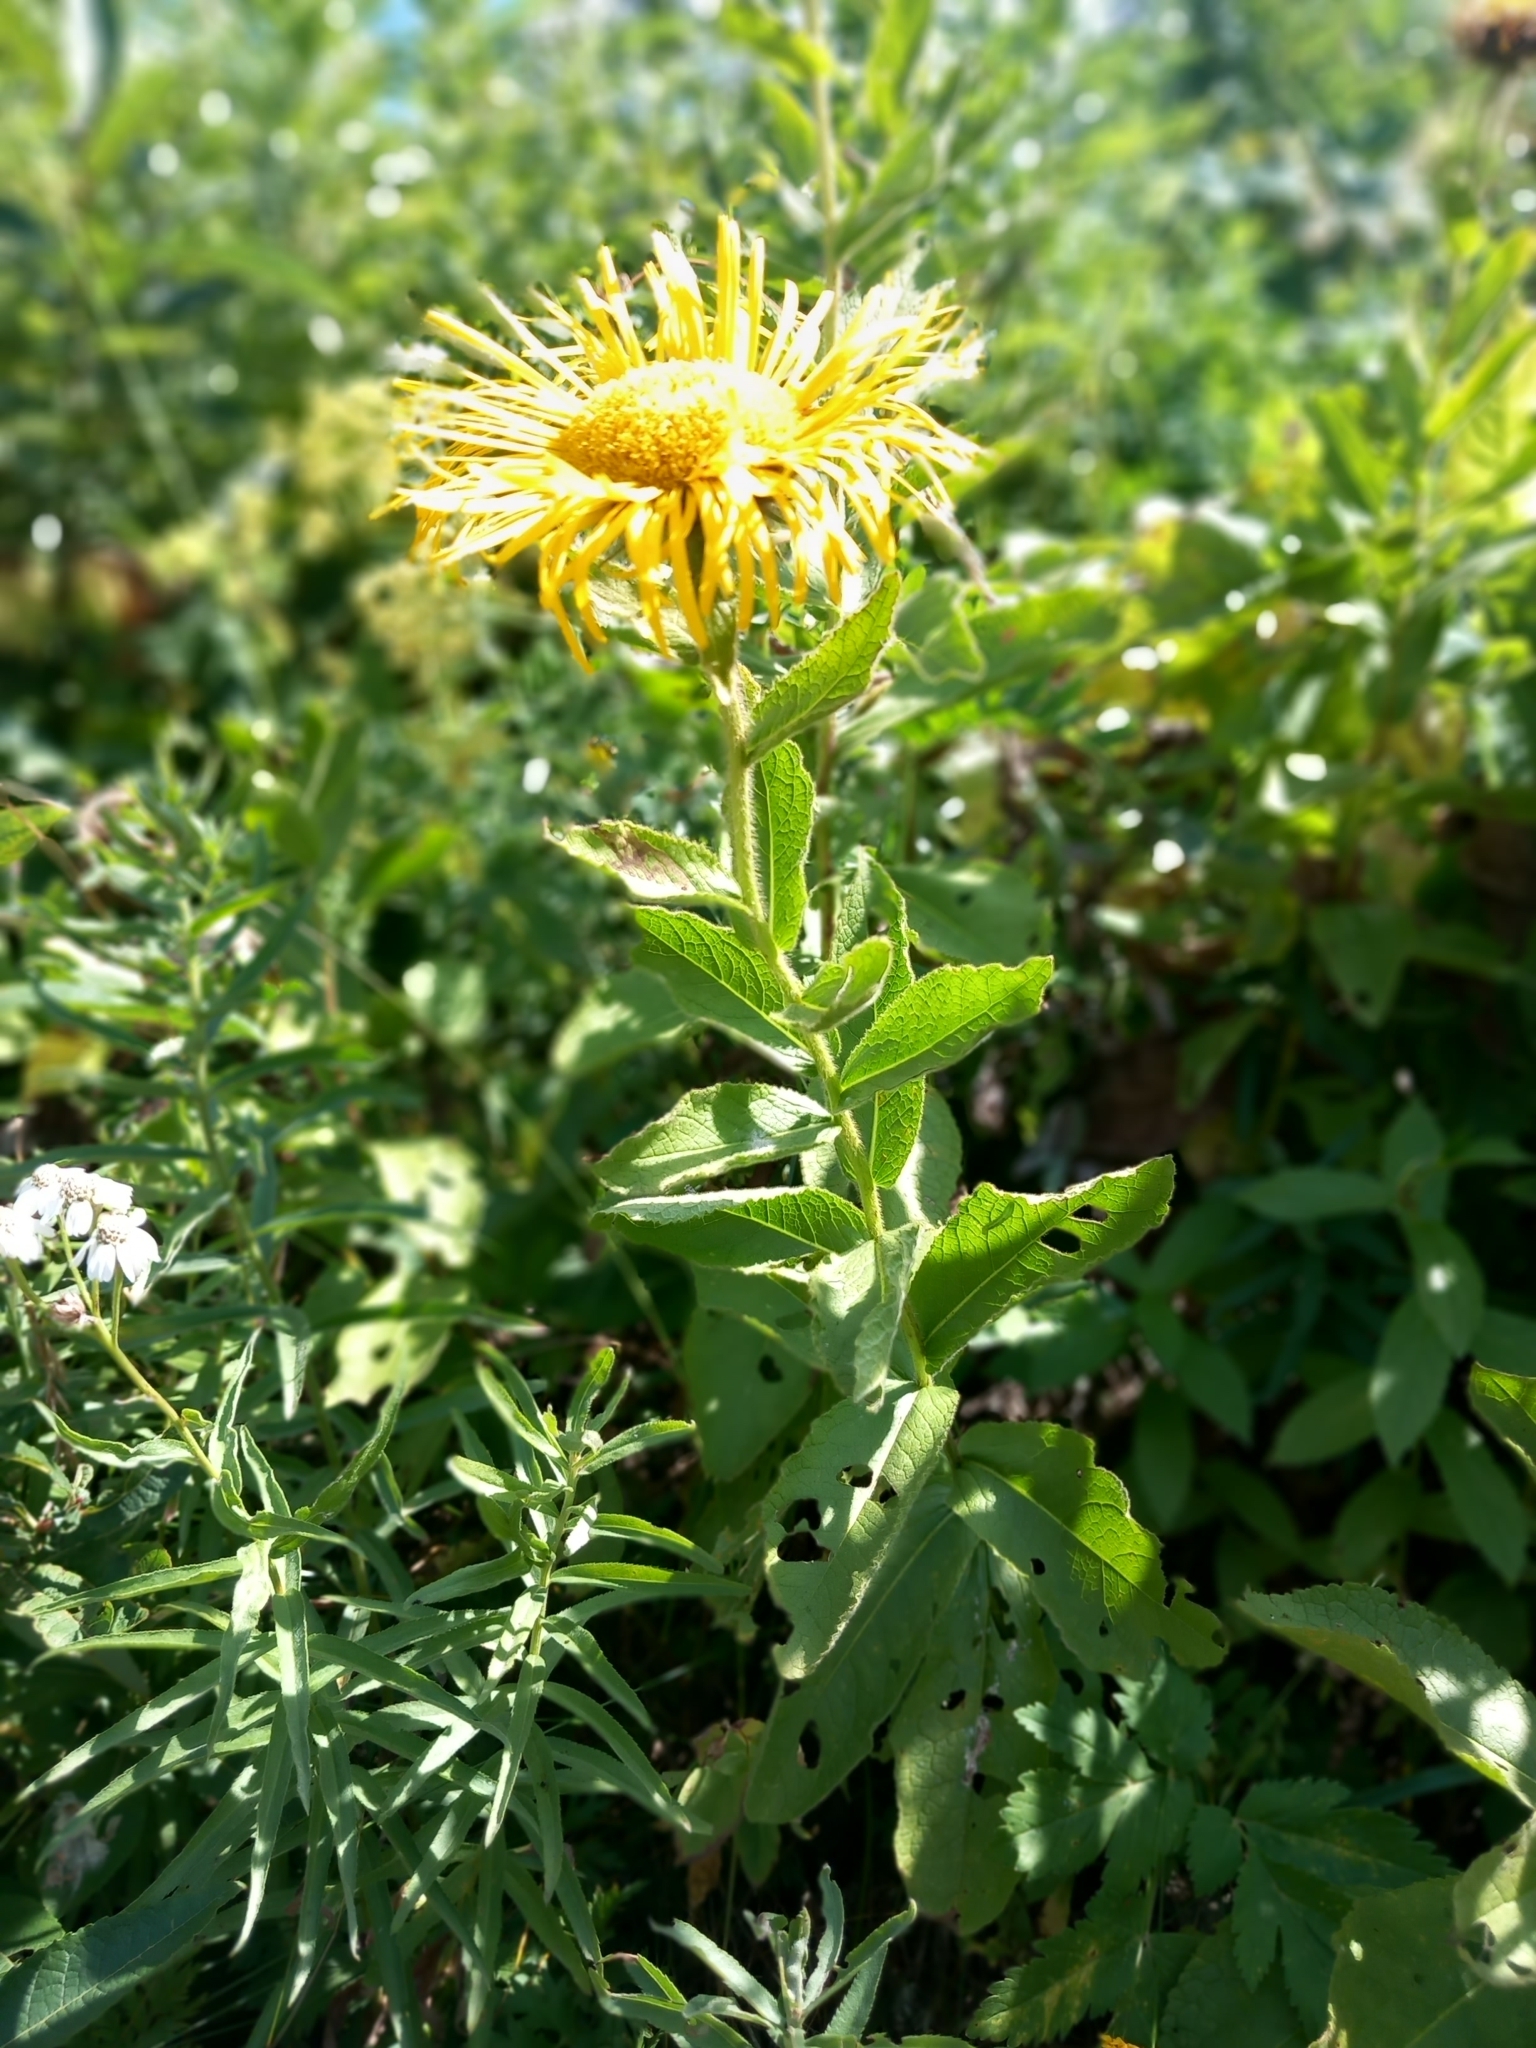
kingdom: Plantae
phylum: Tracheophyta
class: Magnoliopsida
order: Asterales
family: Asteraceae
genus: Pentanema
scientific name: Pentanema orientale
